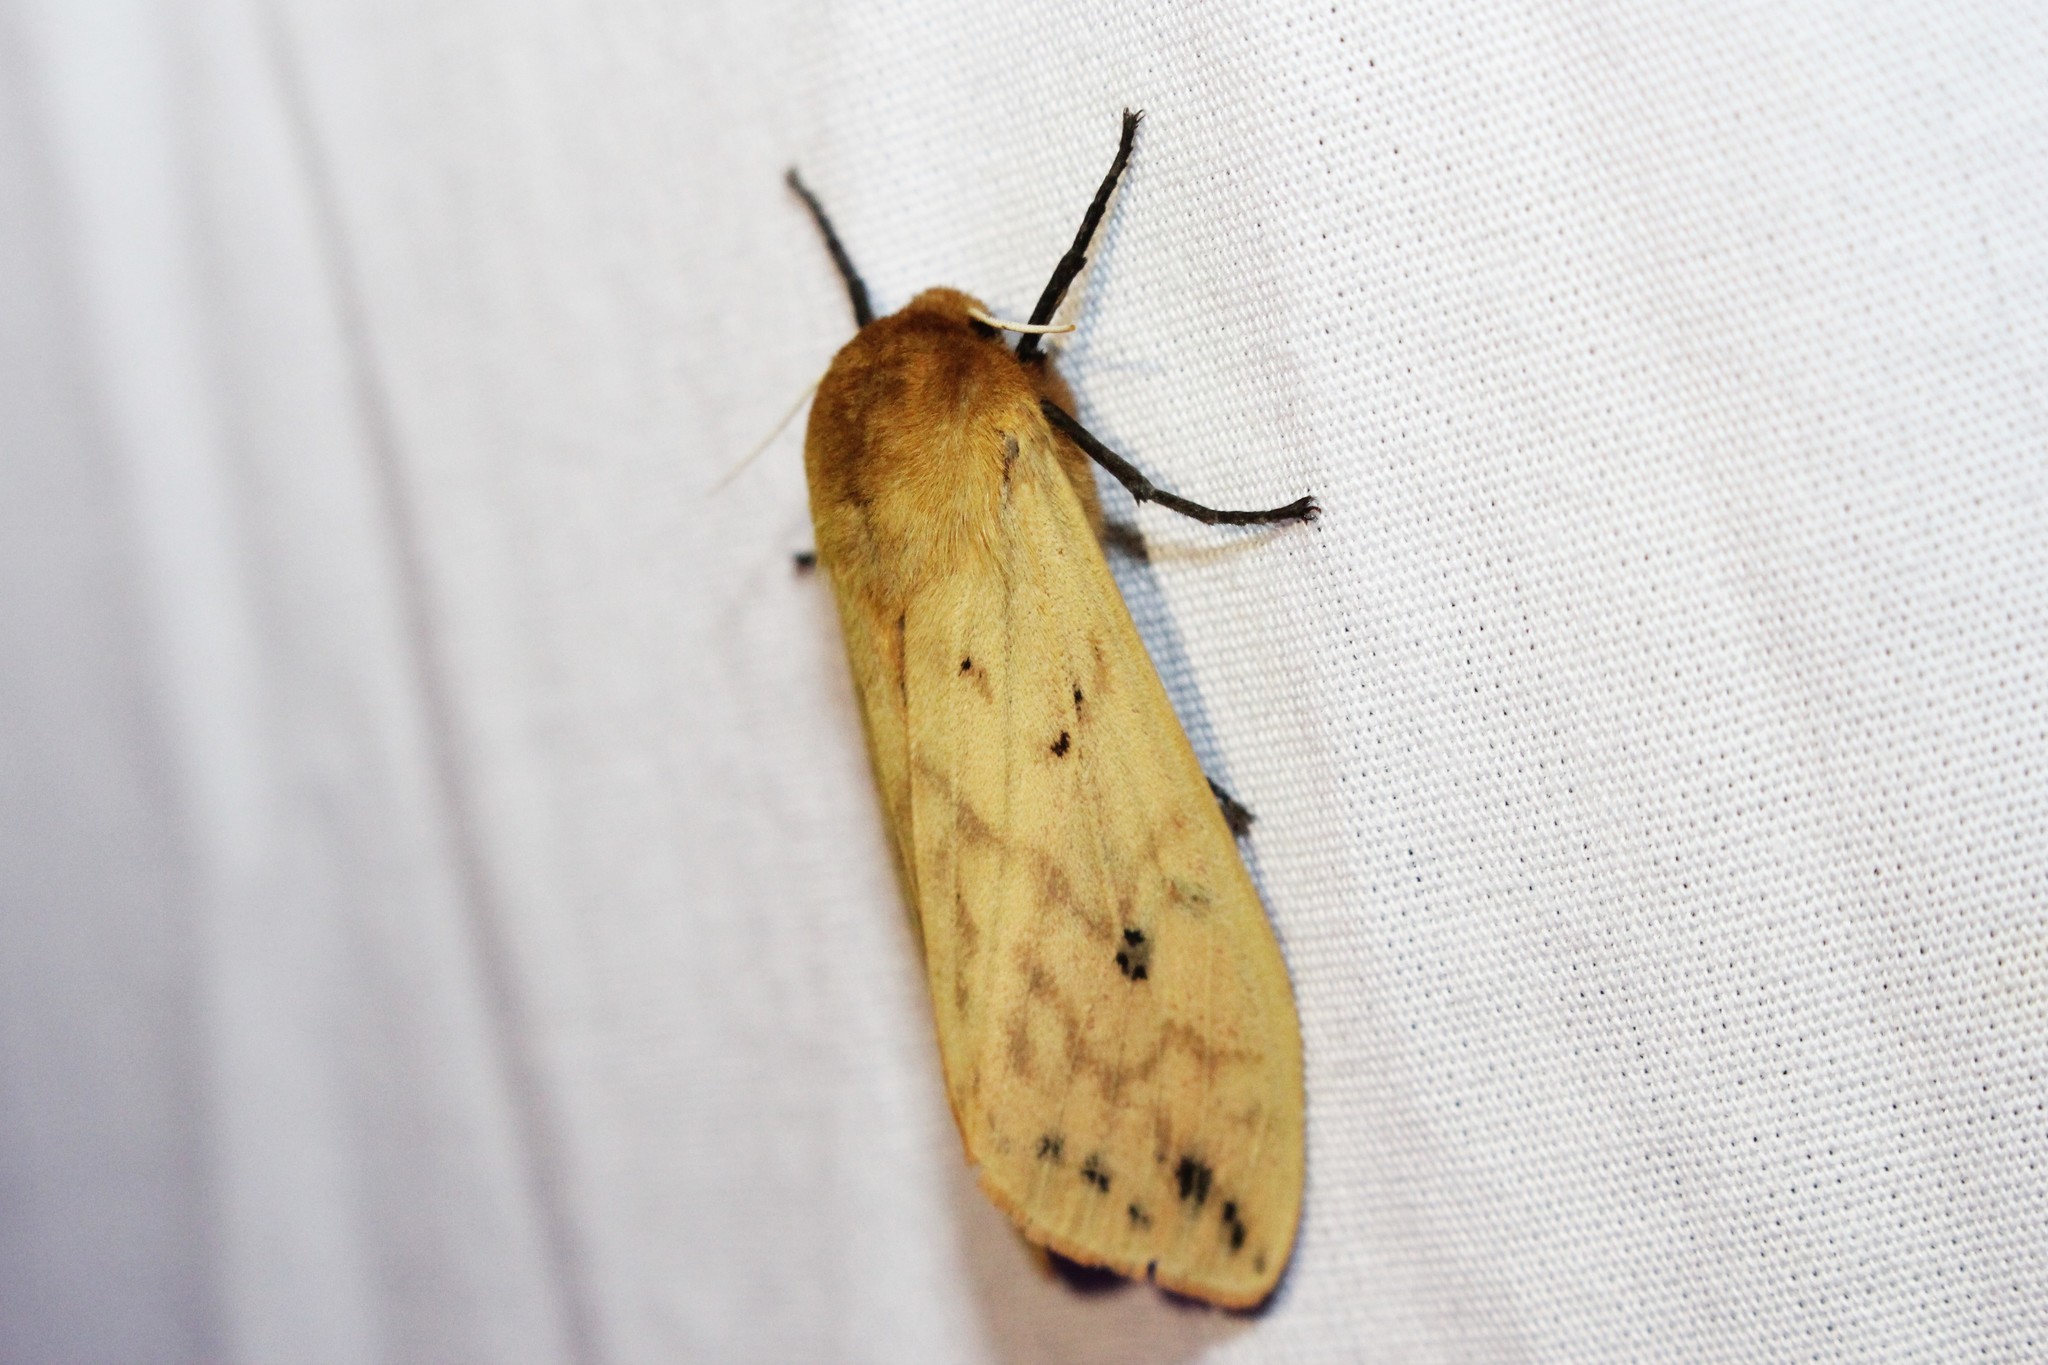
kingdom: Animalia
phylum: Arthropoda
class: Insecta
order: Lepidoptera
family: Erebidae
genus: Pyrrharctia
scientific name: Pyrrharctia isabella
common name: Isabella tiger moth
